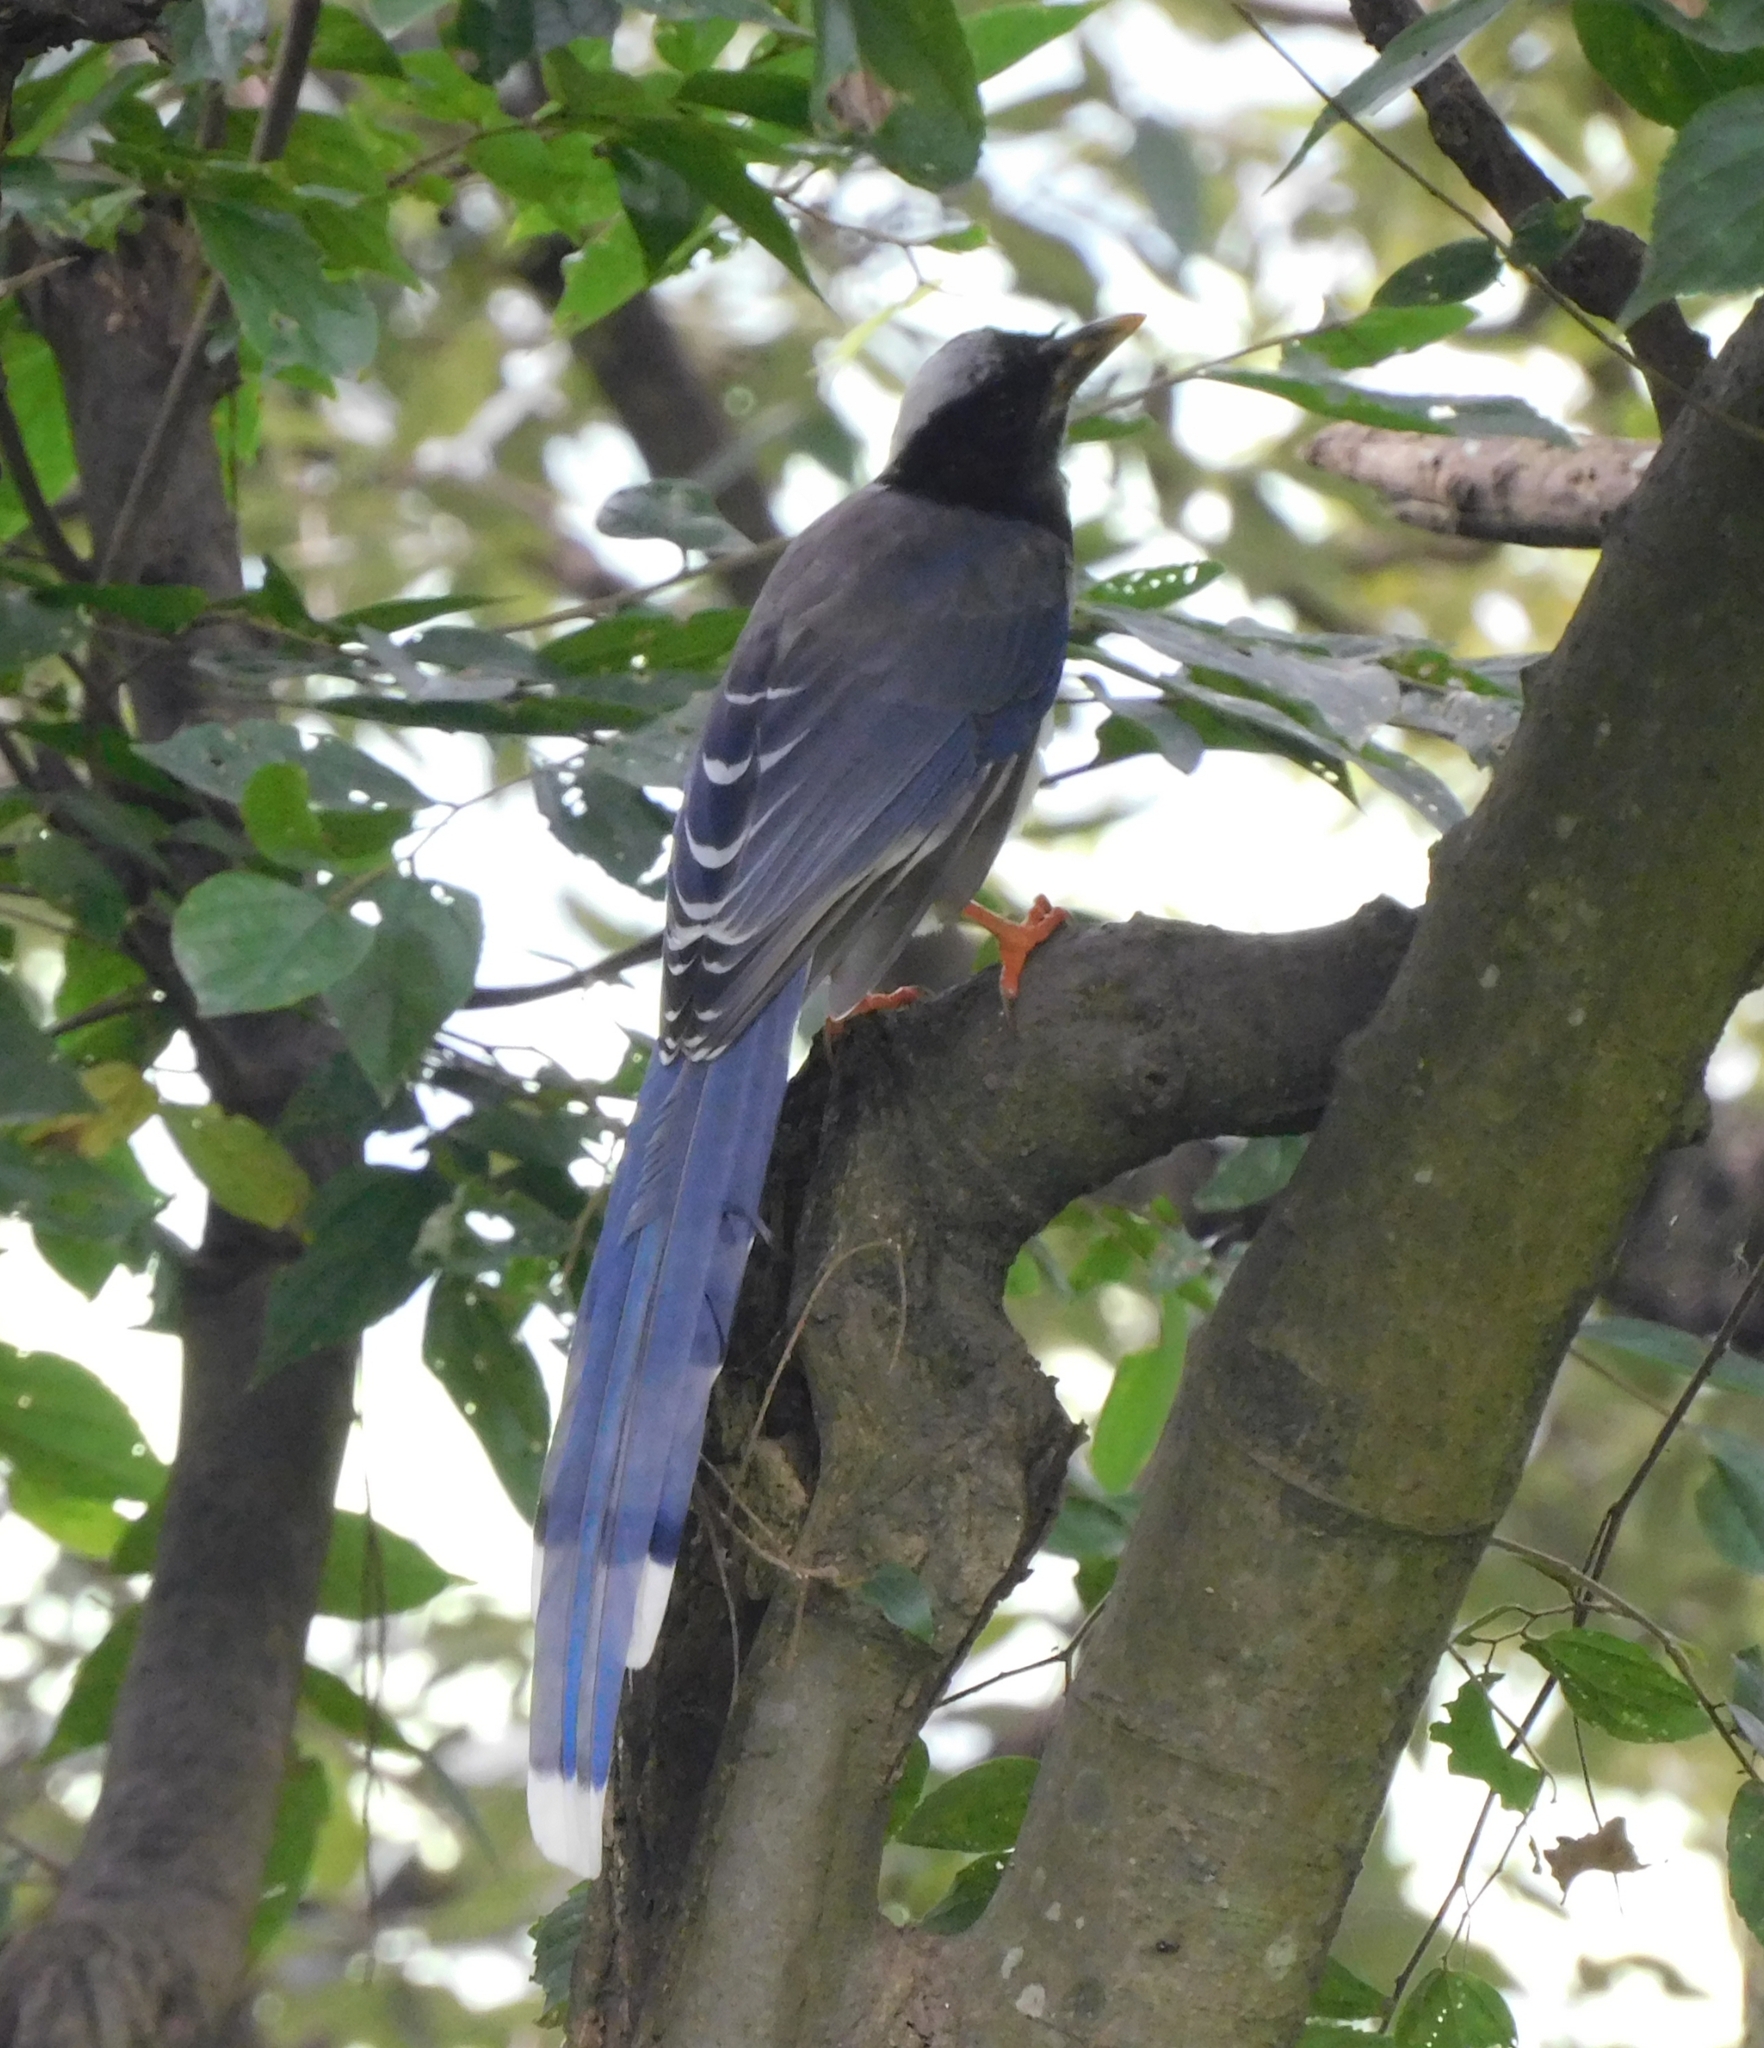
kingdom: Animalia
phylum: Chordata
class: Aves
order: Passeriformes
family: Corvidae
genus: Urocissa
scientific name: Urocissa flavirostris
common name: Yellow-billed blue magpie
